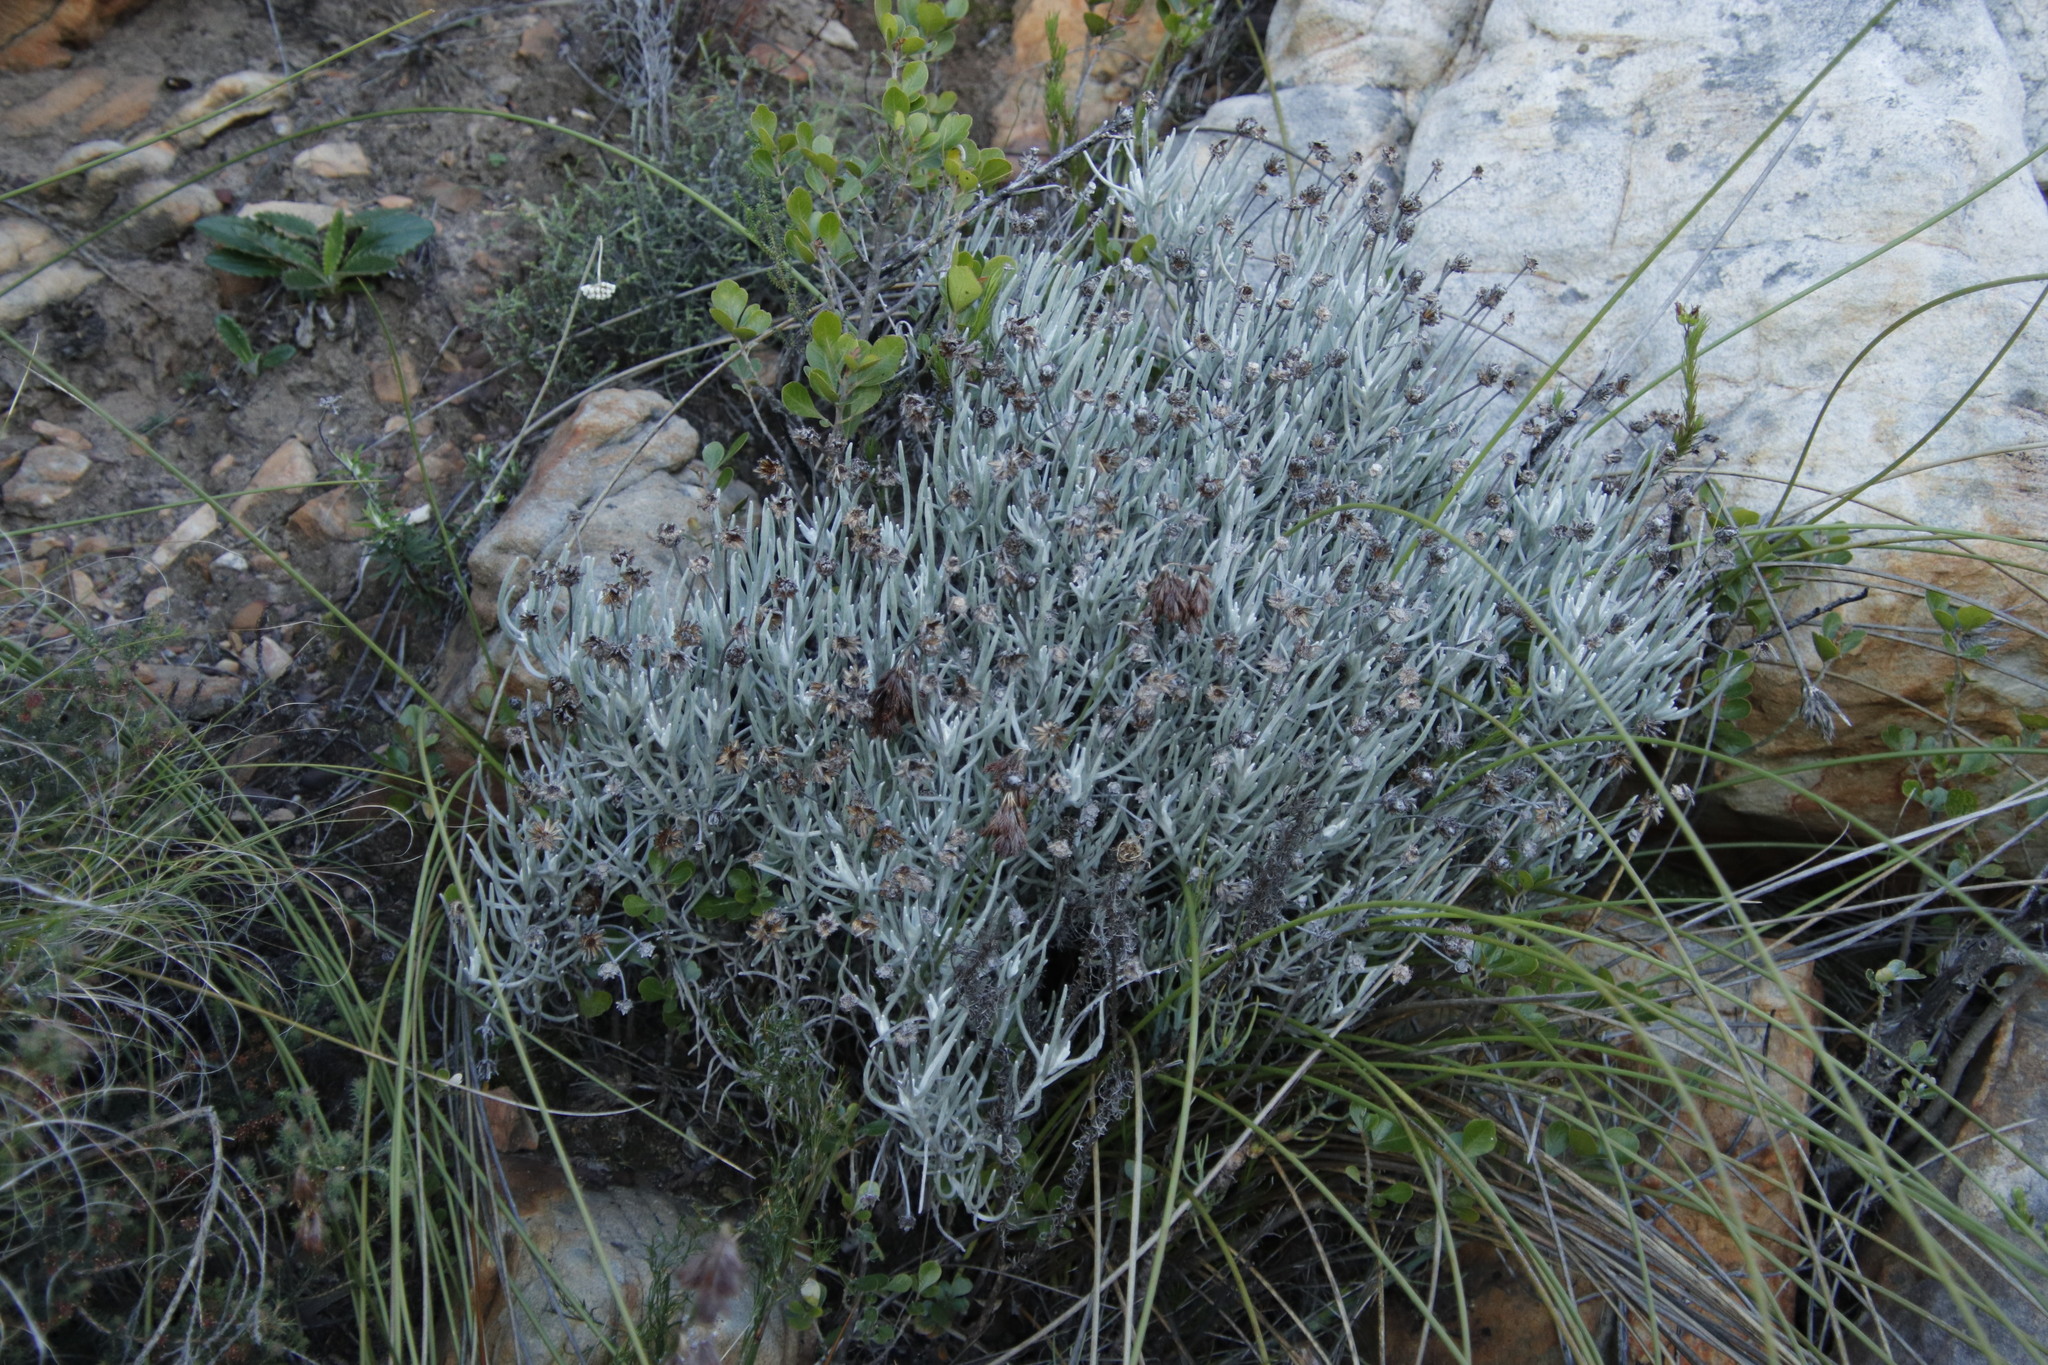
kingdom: Plantae
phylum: Tracheophyta
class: Magnoliopsida
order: Asterales
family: Asteraceae
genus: Syncarpha
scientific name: Syncarpha gnaphaloides
